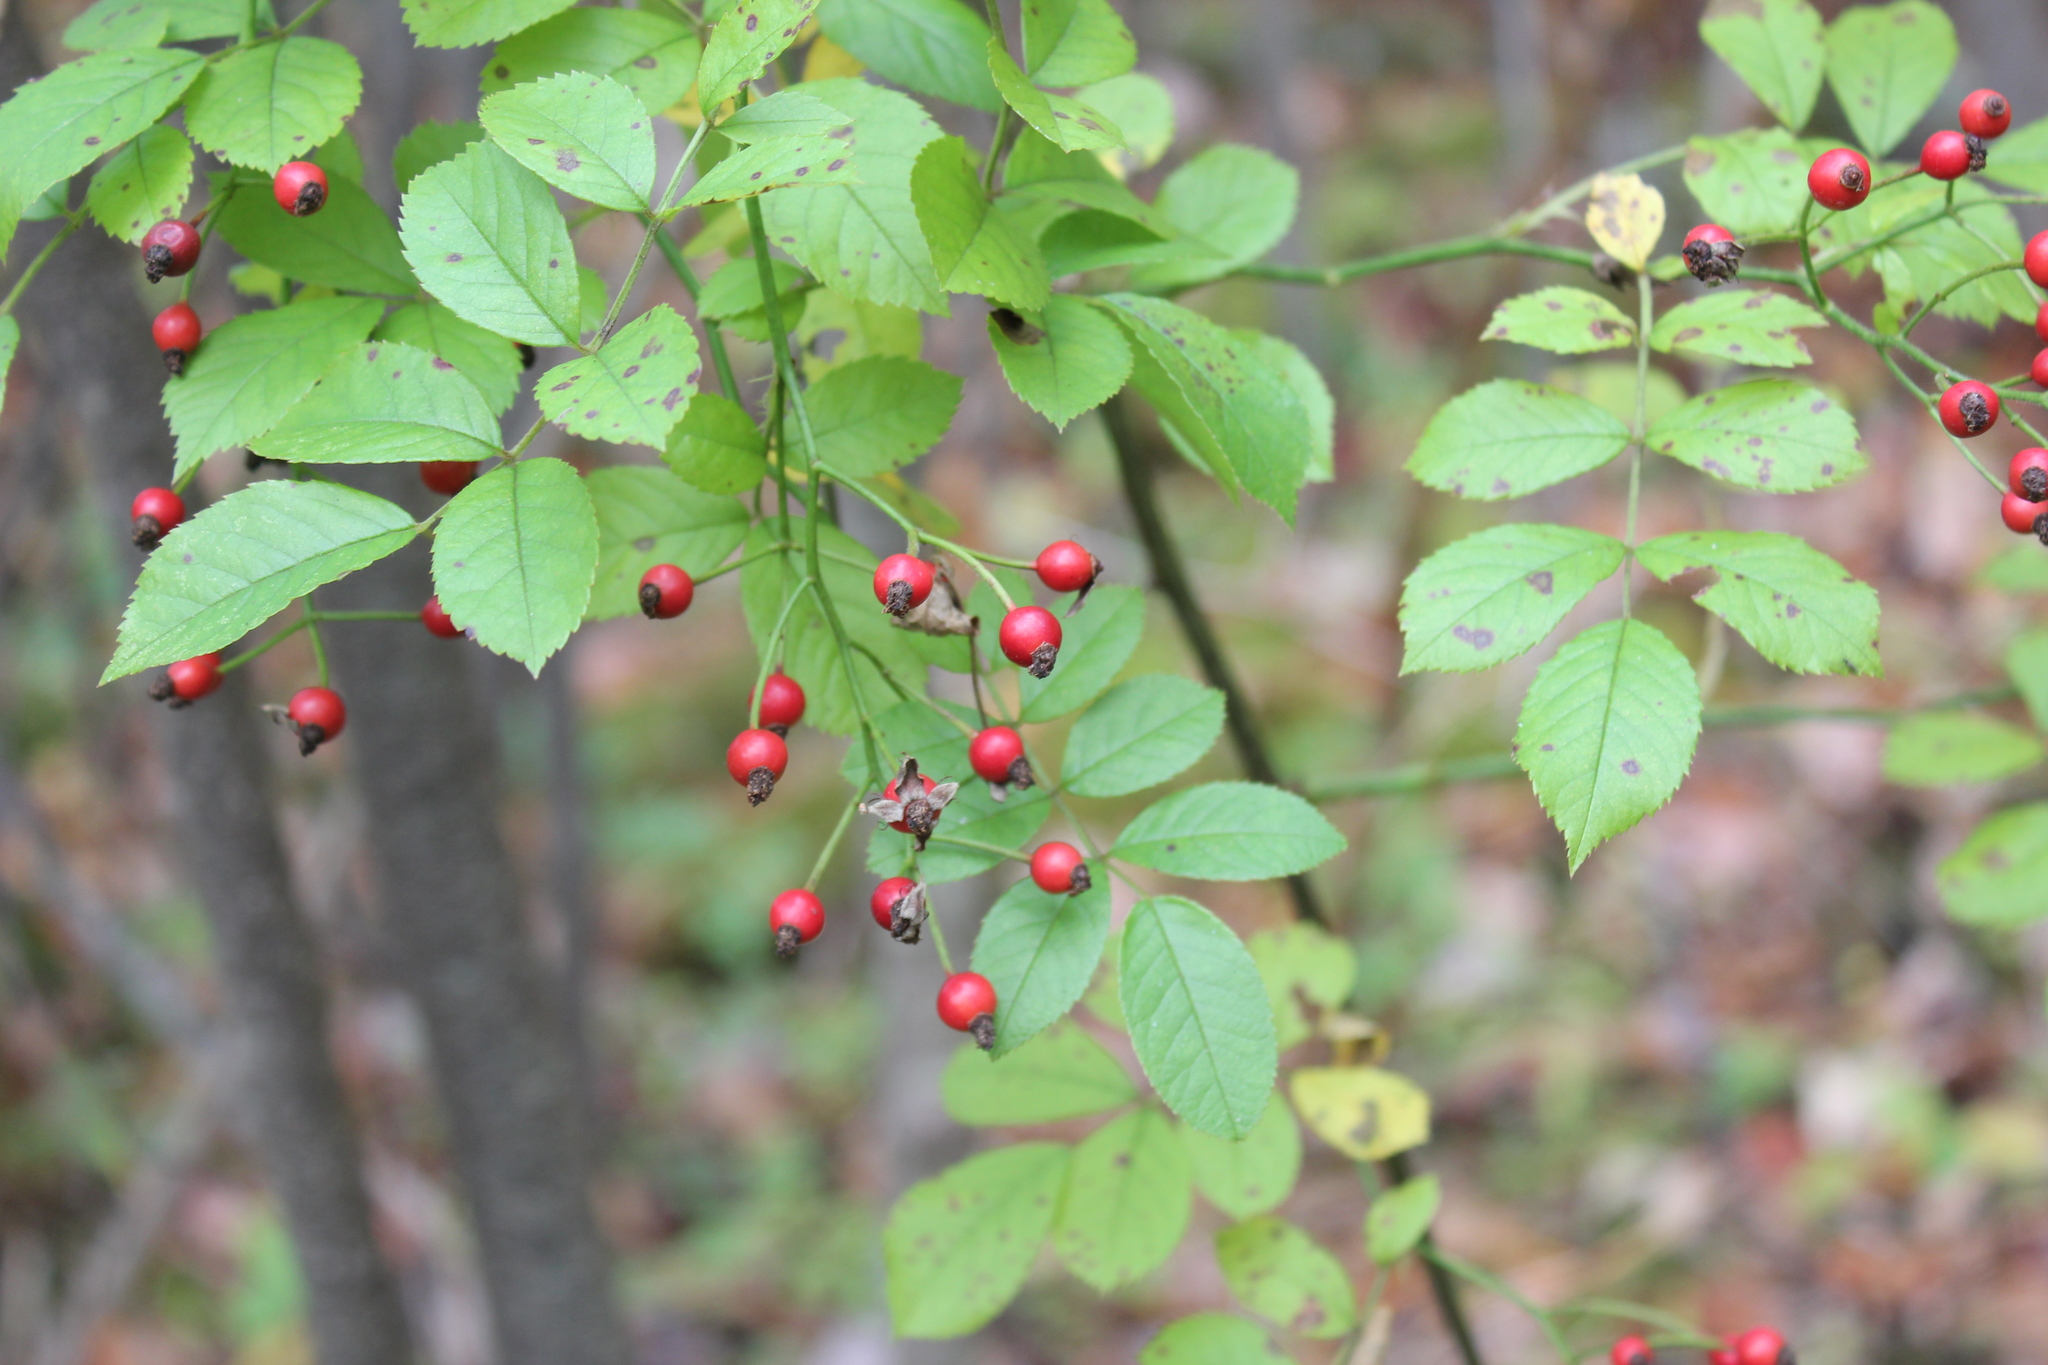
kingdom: Plantae
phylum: Tracheophyta
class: Magnoliopsida
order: Rosales
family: Rosaceae
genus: Rosa
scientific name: Rosa multiflora
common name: Multiflora rose
